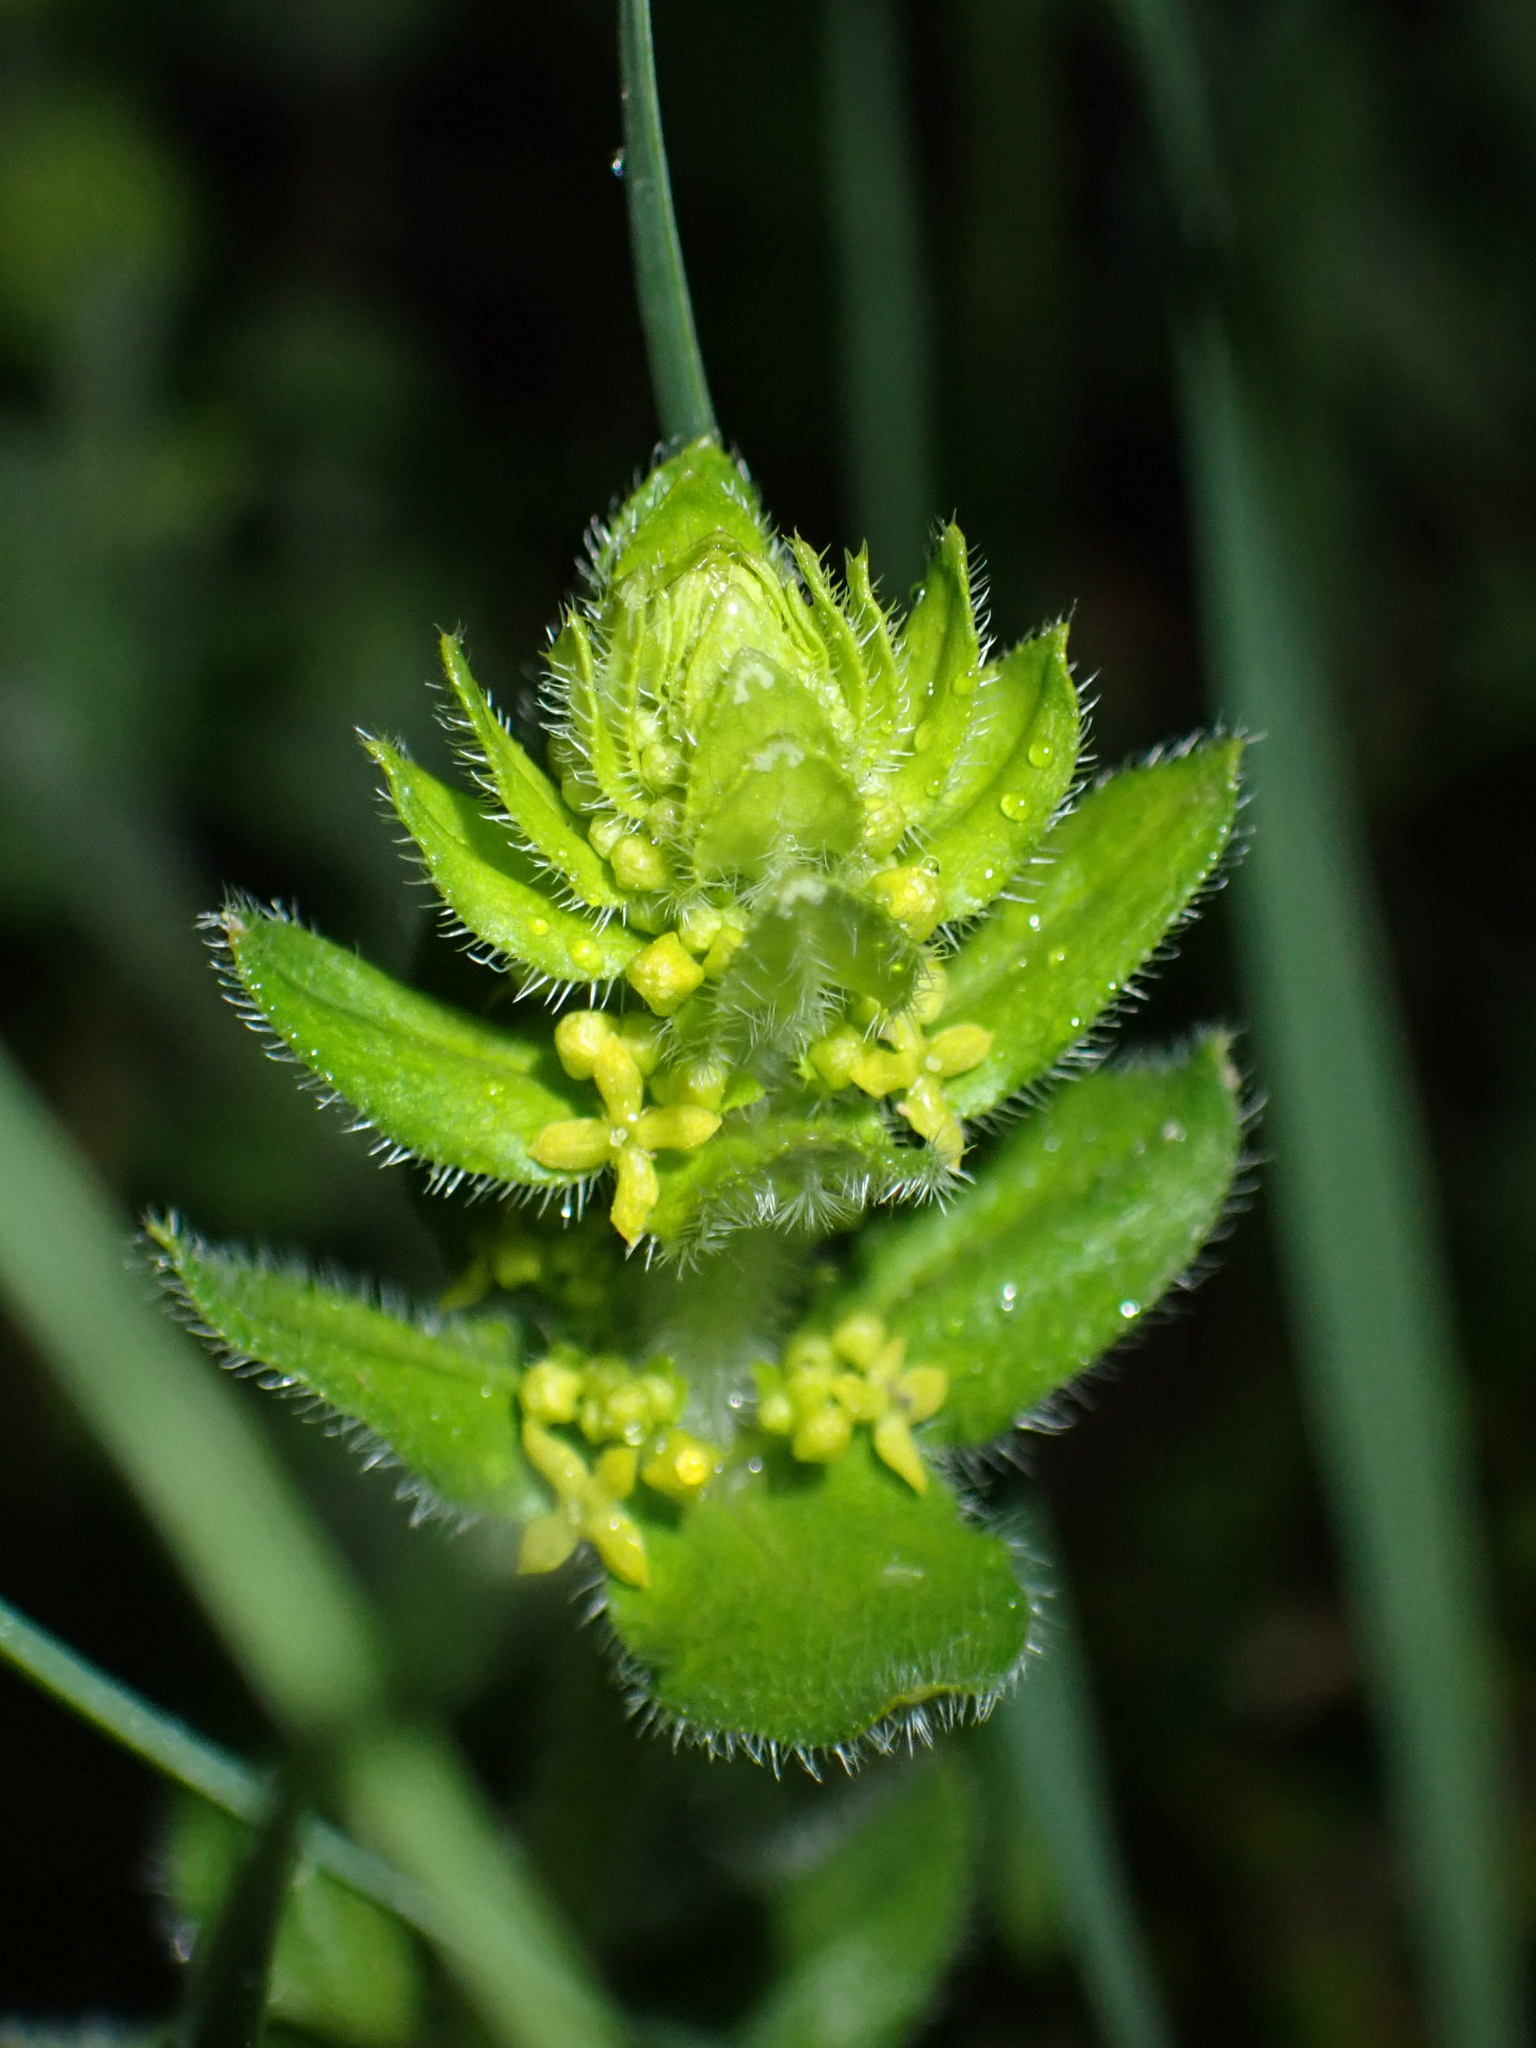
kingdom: Plantae
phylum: Tracheophyta
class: Magnoliopsida
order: Gentianales
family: Rubiaceae
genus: Cruciata
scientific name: Cruciata laevipes
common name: Crosswort
